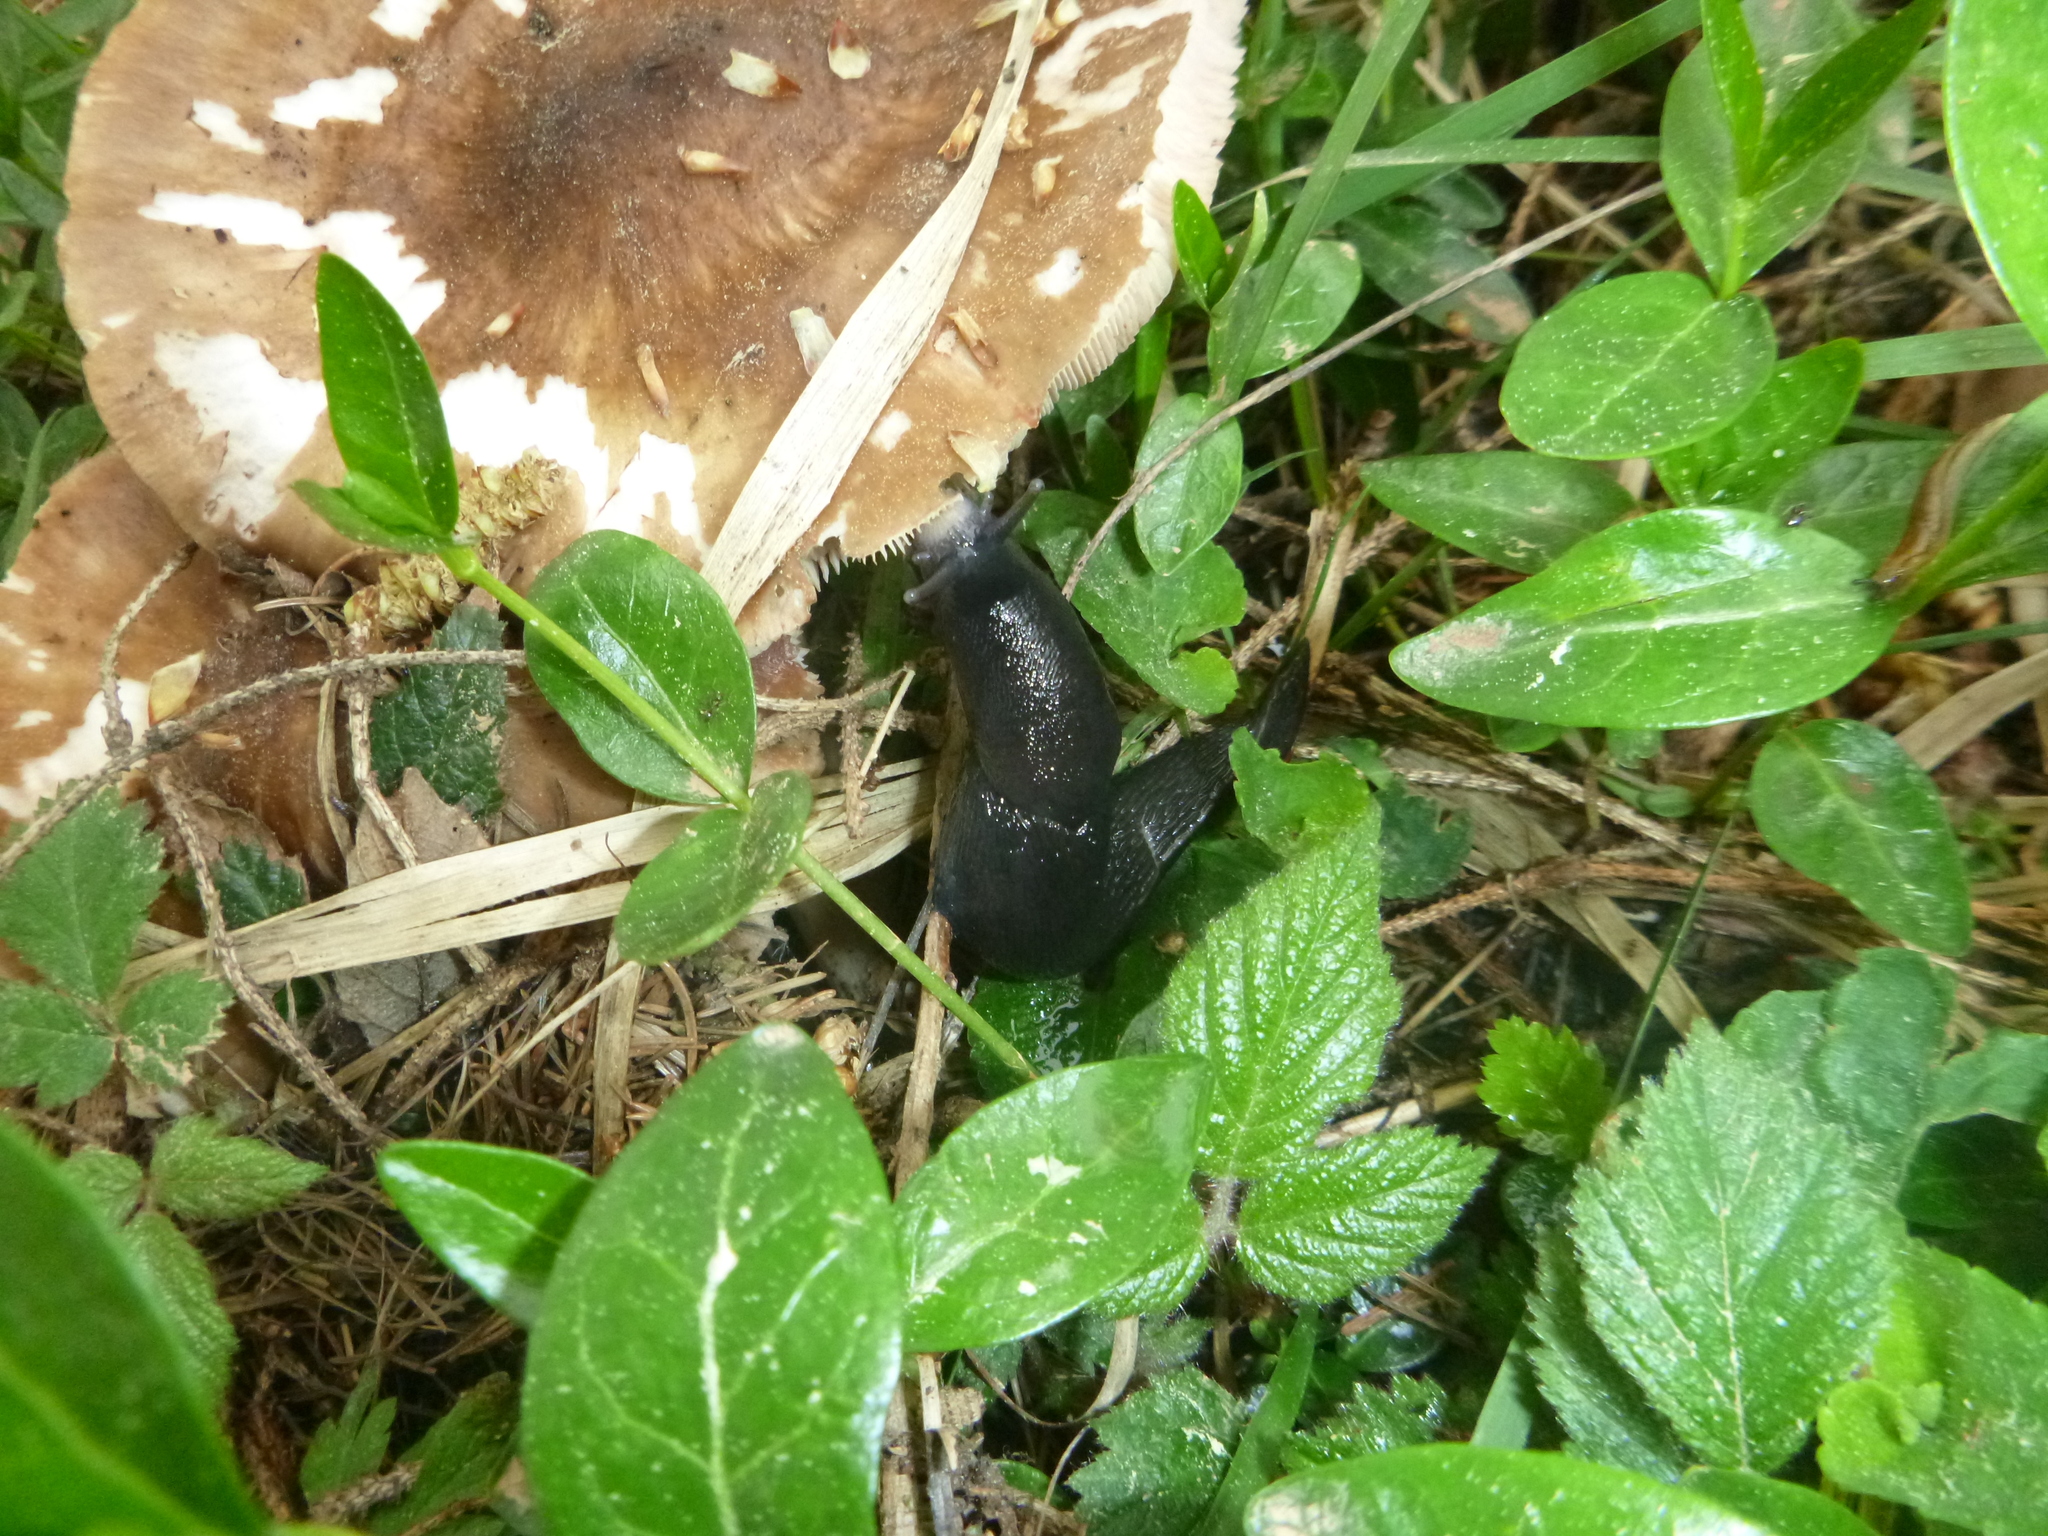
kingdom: Animalia
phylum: Mollusca
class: Gastropoda
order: Stylommatophora
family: Limacidae
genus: Limax
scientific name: Limax cinereoniger
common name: Ash-black slug
